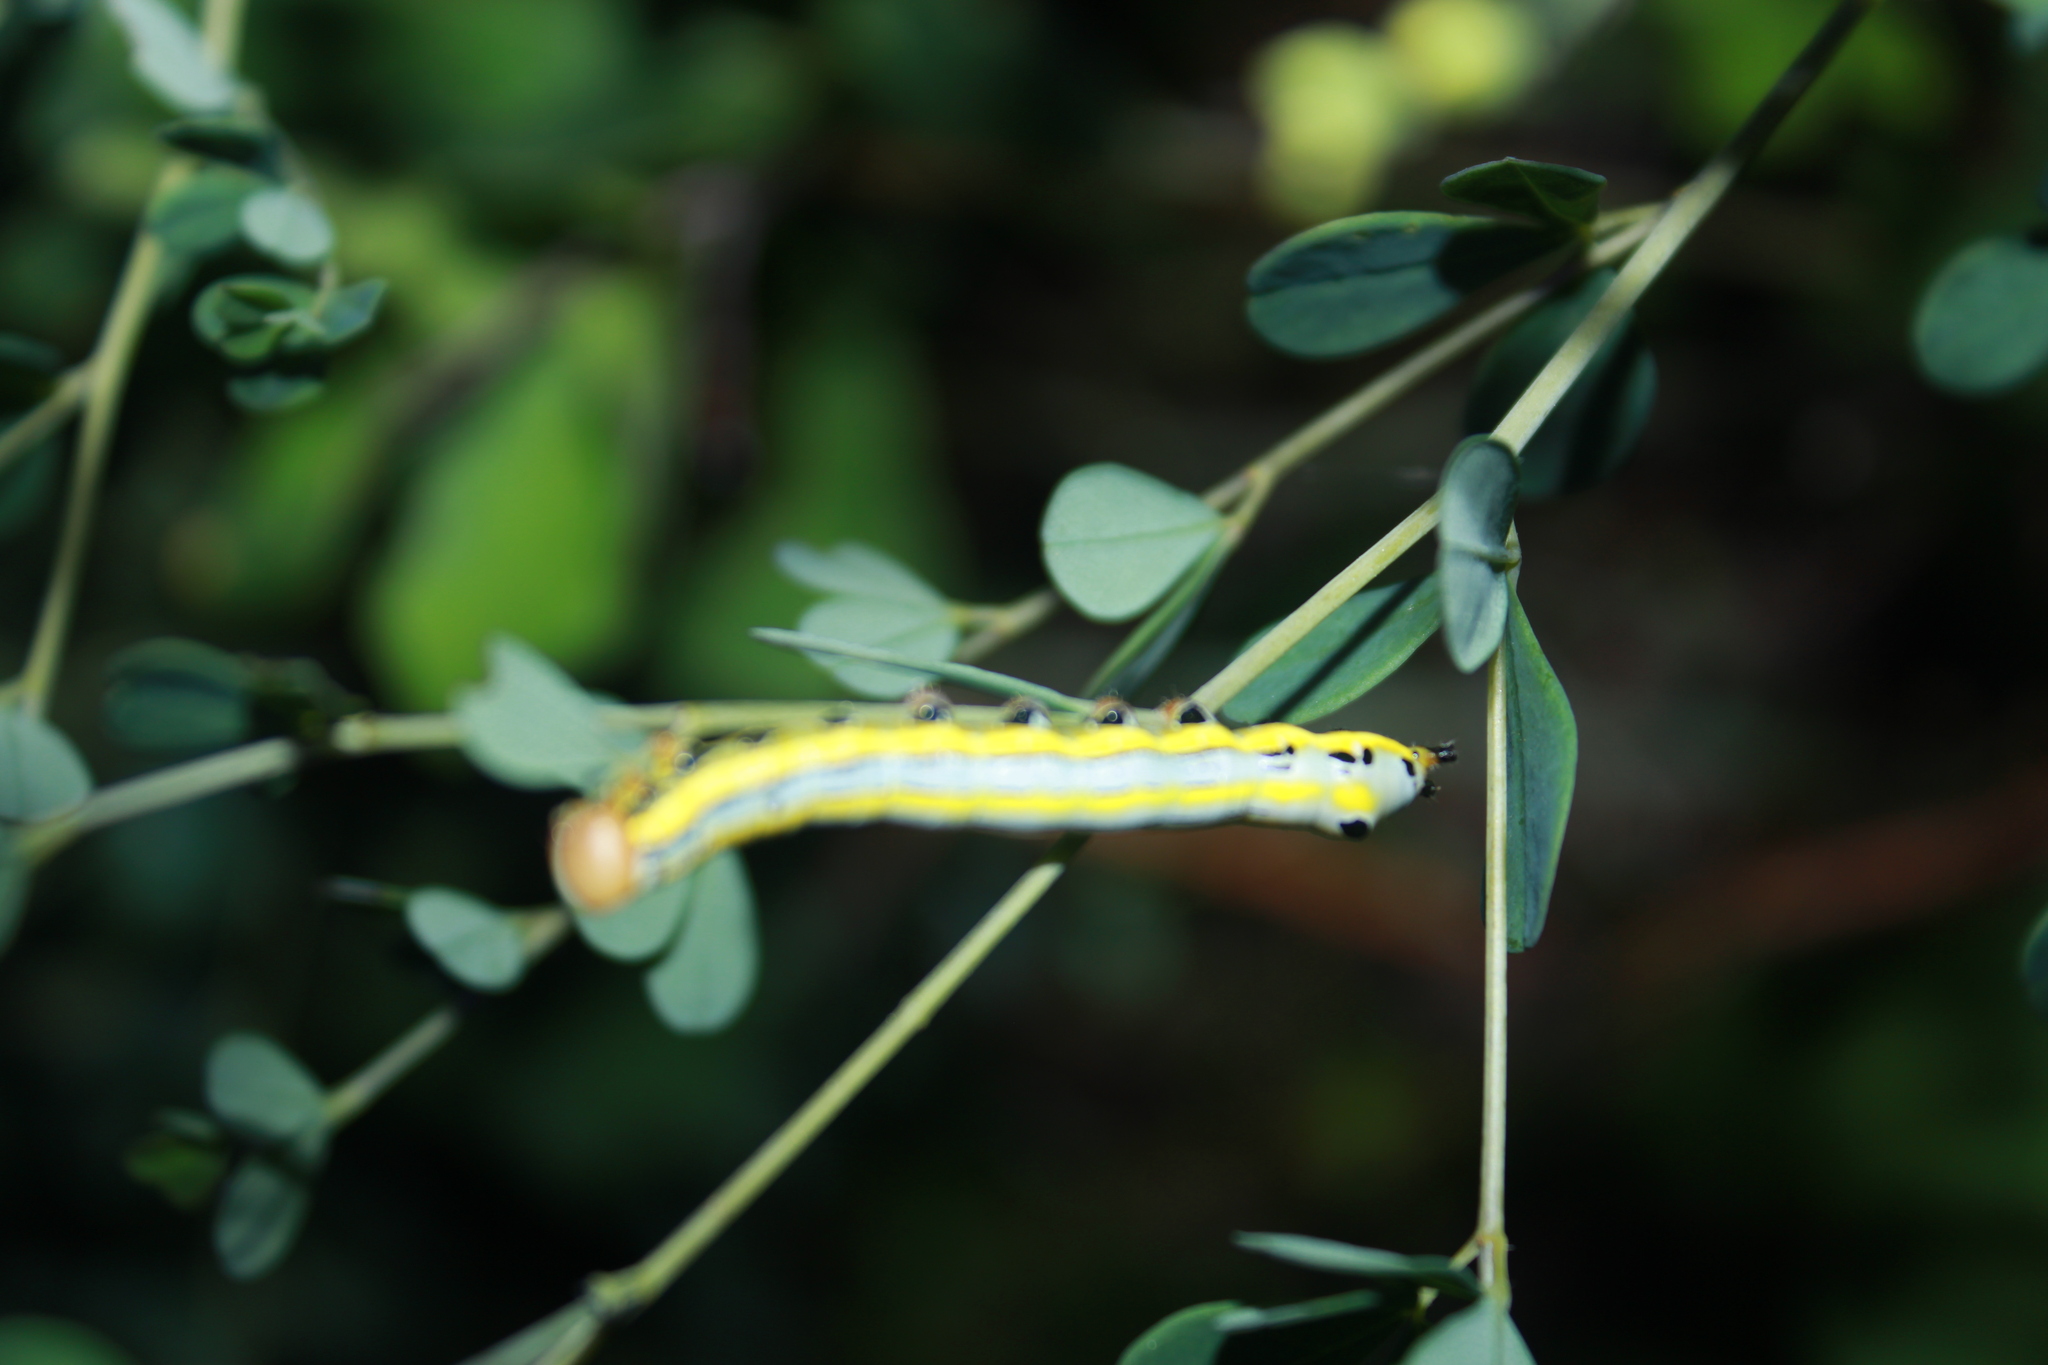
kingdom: Animalia
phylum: Arthropoda
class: Insecta
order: Lepidoptera
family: Notodontidae
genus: Dasylophia
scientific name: Dasylophia anguina
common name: Black-spotted prominent
